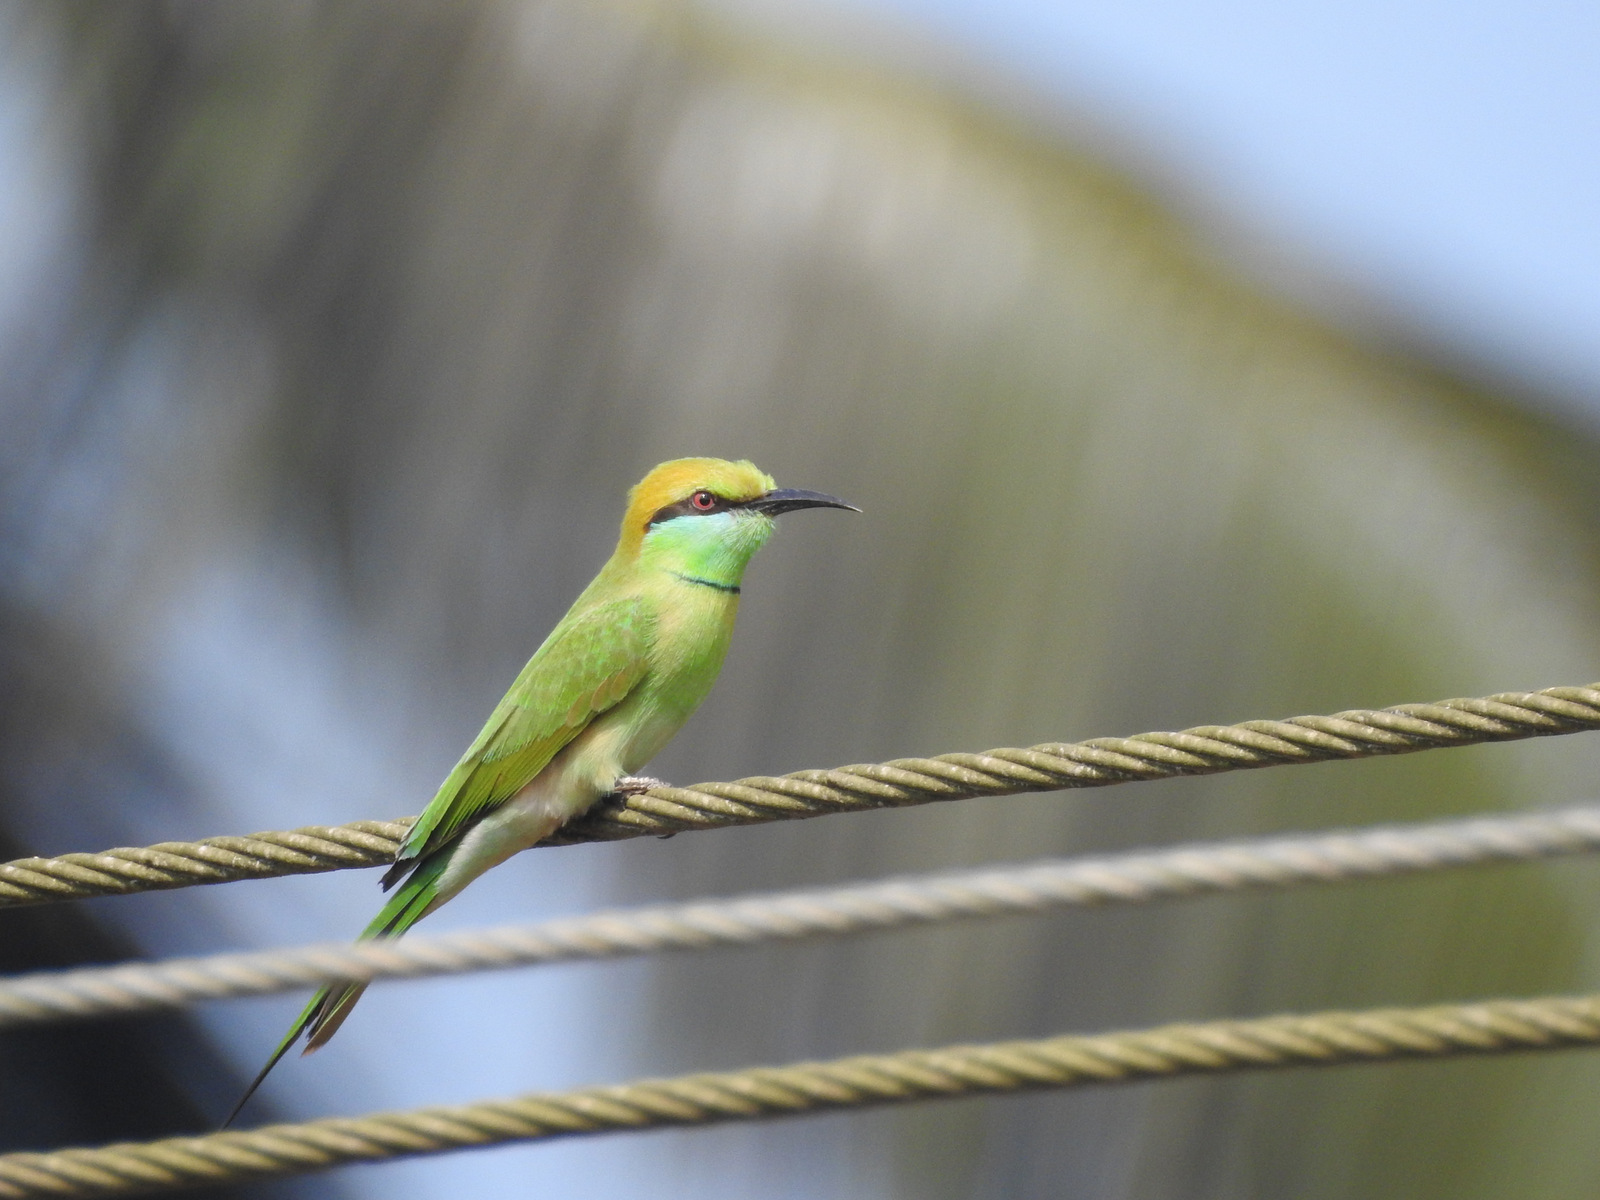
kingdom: Animalia
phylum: Chordata
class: Aves
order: Coraciiformes
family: Meropidae
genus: Merops
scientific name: Merops orientalis
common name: Green bee-eater
